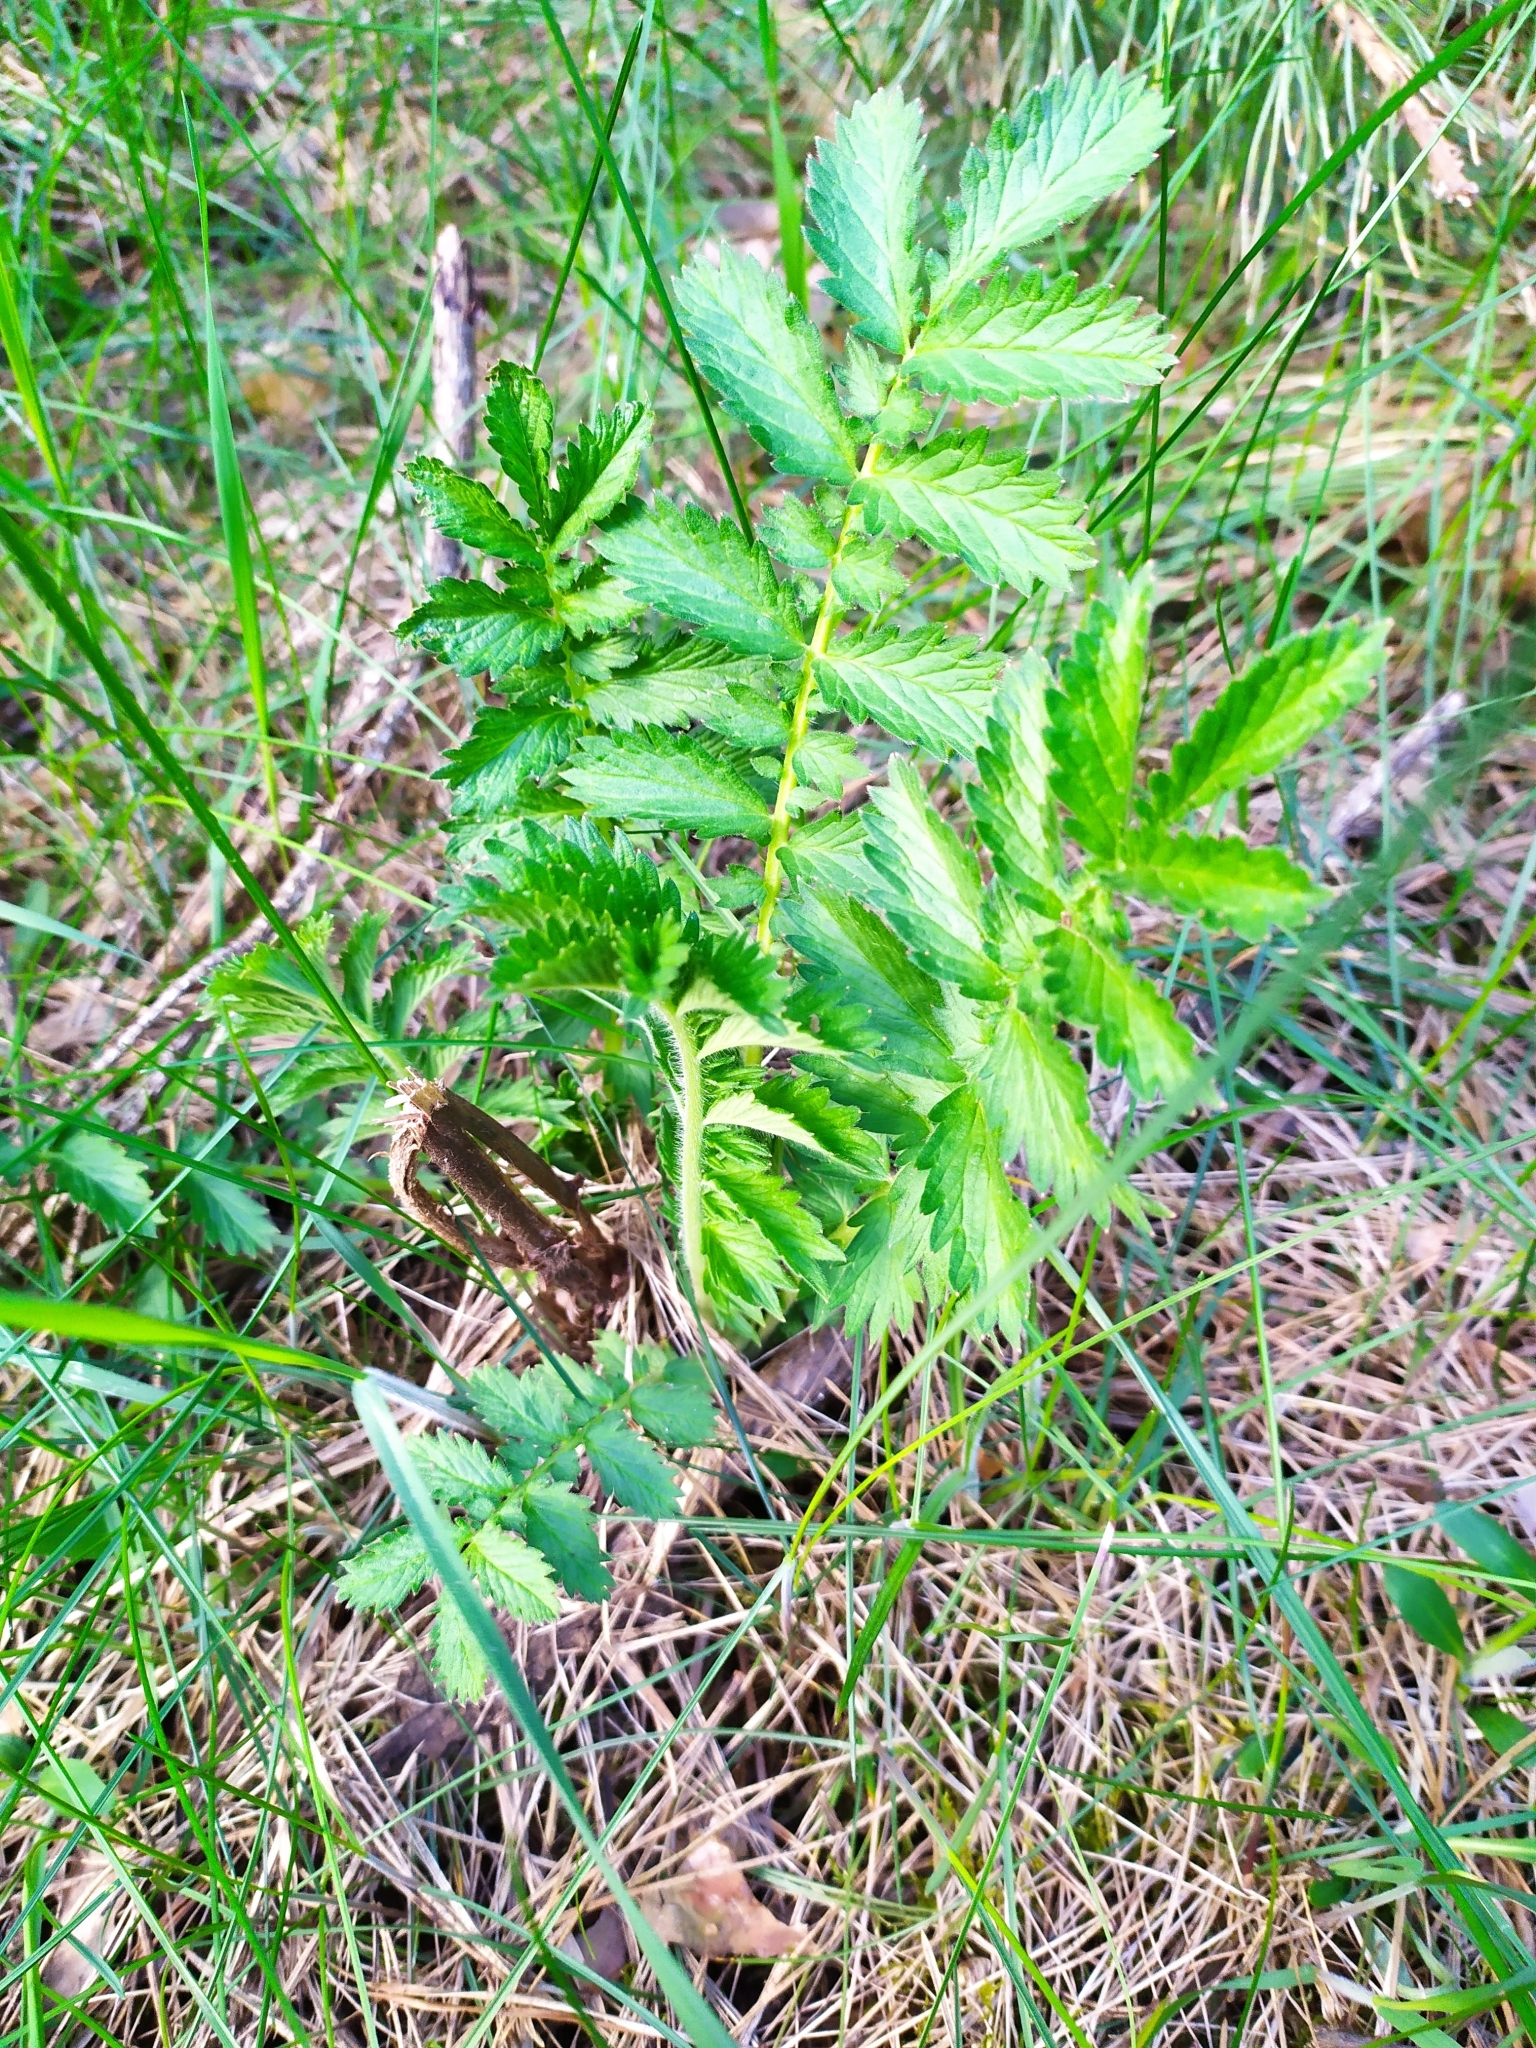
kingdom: Plantae
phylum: Tracheophyta
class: Magnoliopsida
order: Rosales
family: Rosaceae
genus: Argentina
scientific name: Argentina anserina
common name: Common silverweed
